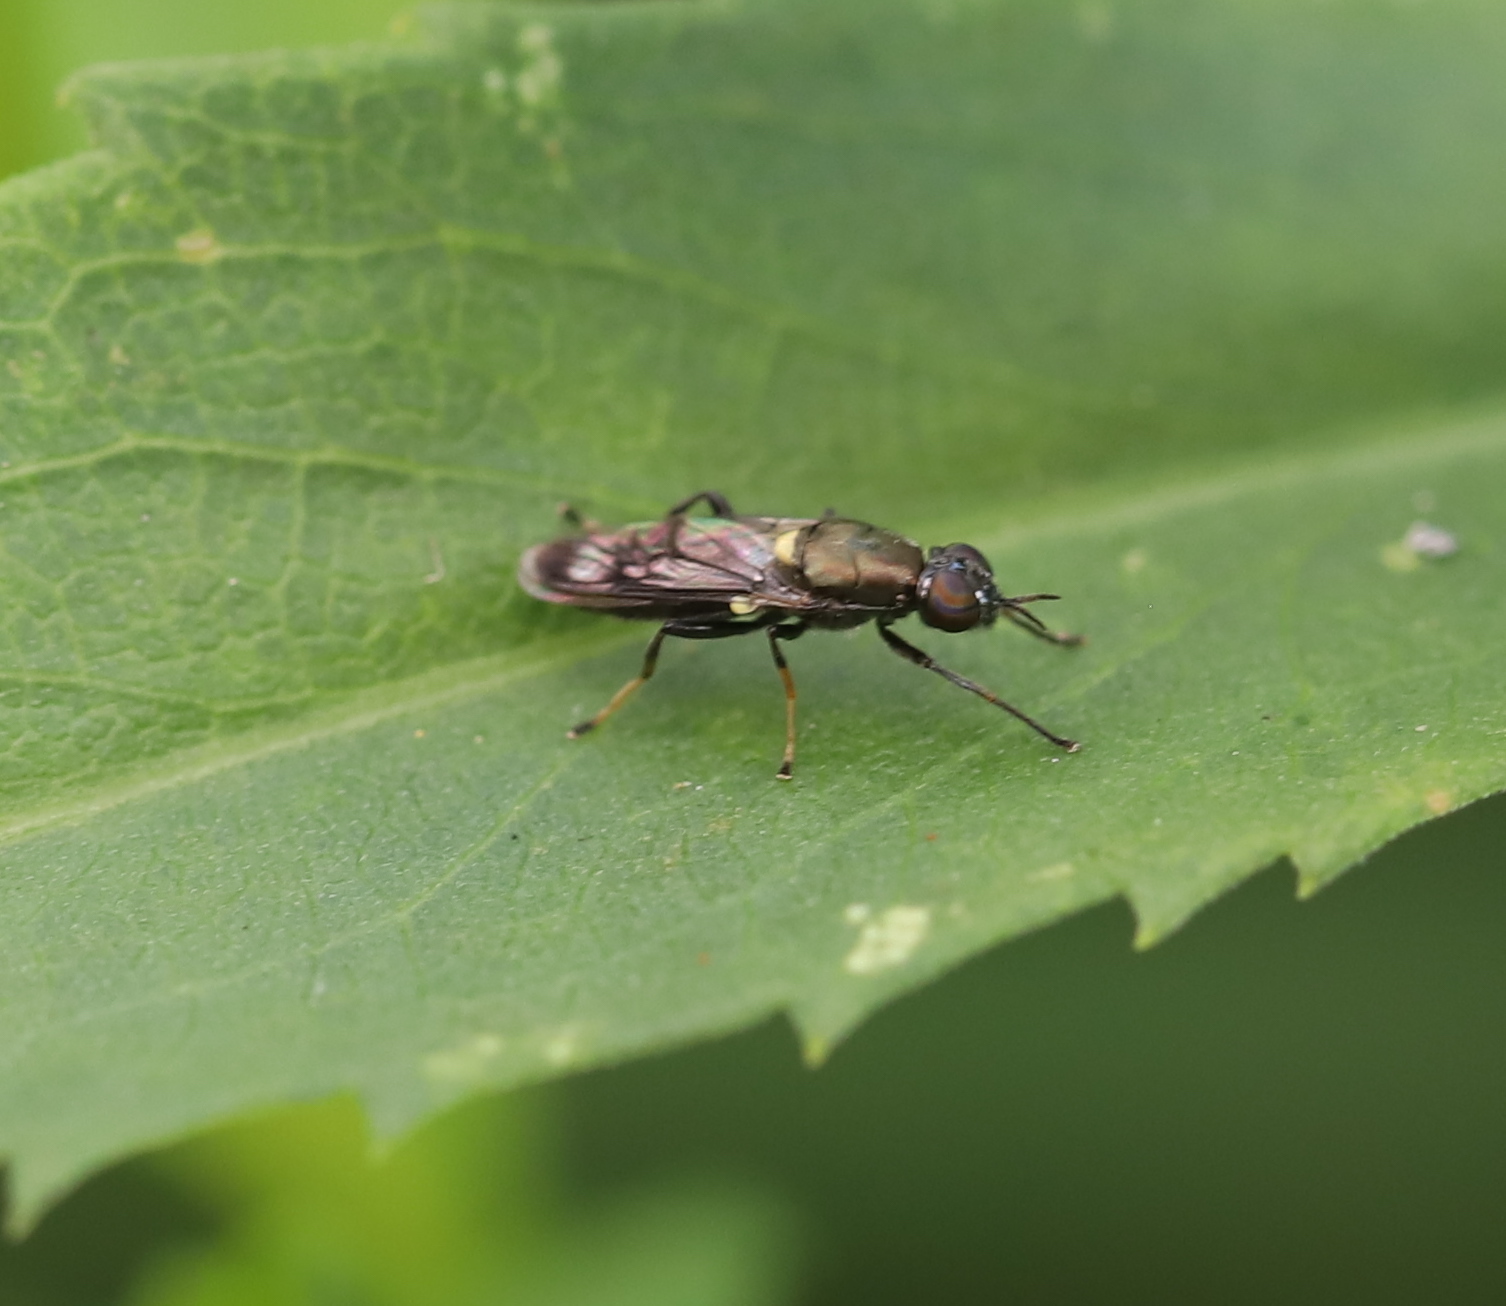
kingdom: Animalia
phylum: Arthropoda
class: Insecta
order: Diptera
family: Stratiomyidae
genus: Myxosargus
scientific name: Myxosargus nigricormis
